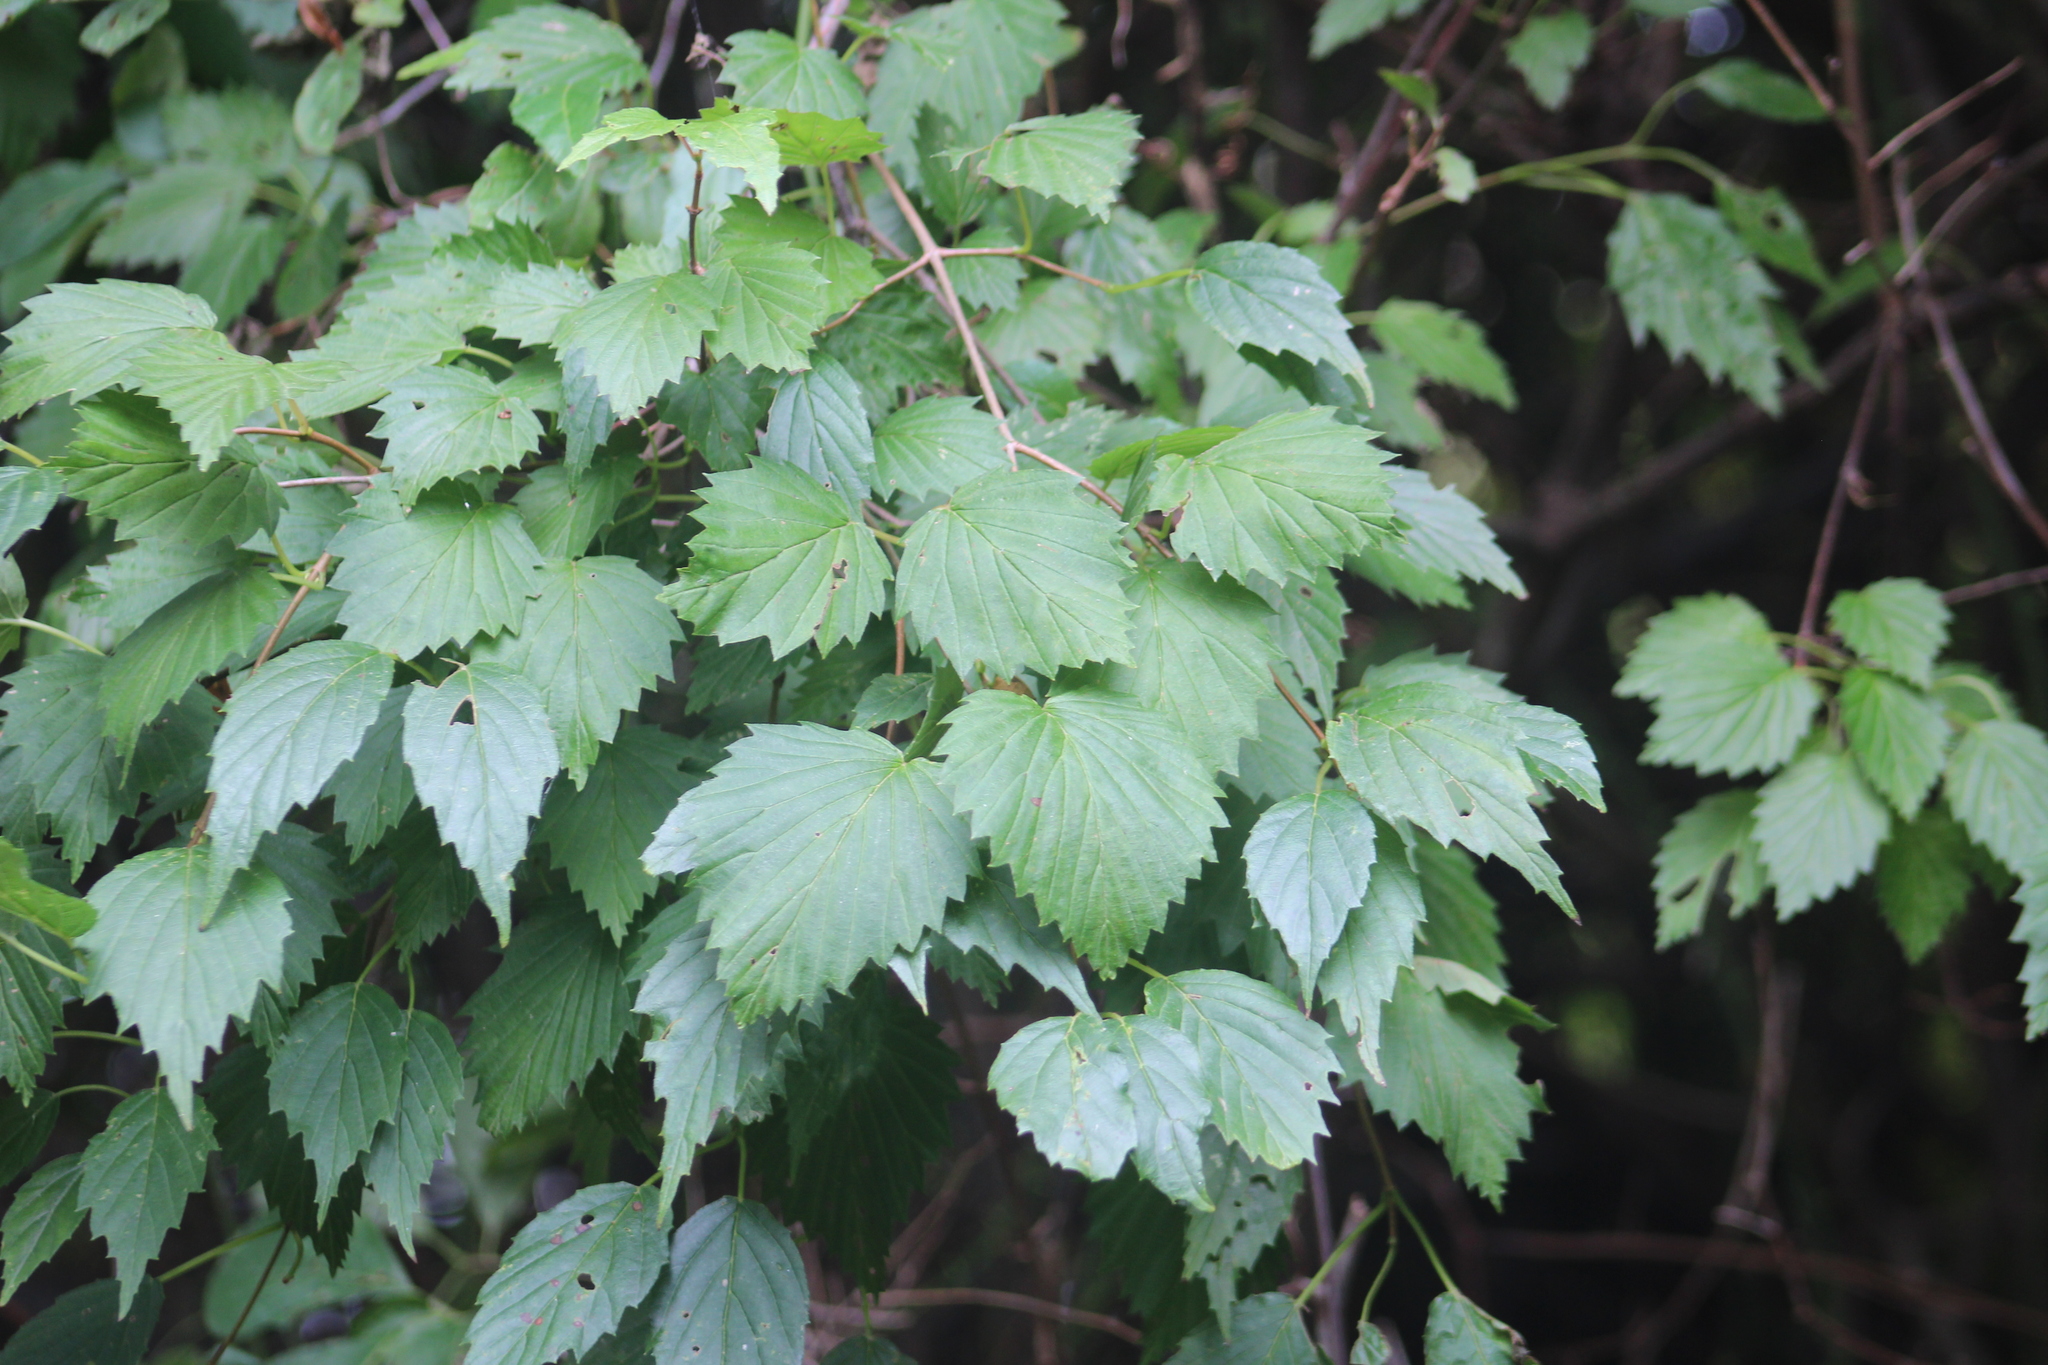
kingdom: Plantae
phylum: Tracheophyta
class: Magnoliopsida
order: Dipsacales
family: Viburnaceae
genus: Viburnum
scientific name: Viburnum dentatum
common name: Arrow-wood
